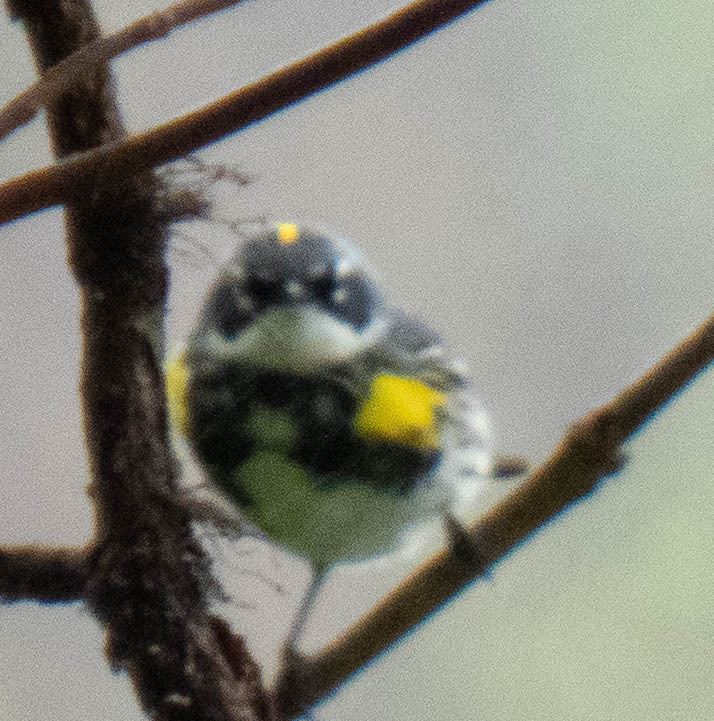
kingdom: Animalia
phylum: Chordata
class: Aves
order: Passeriformes
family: Parulidae
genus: Setophaga
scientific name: Setophaga coronata
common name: Myrtle warbler
